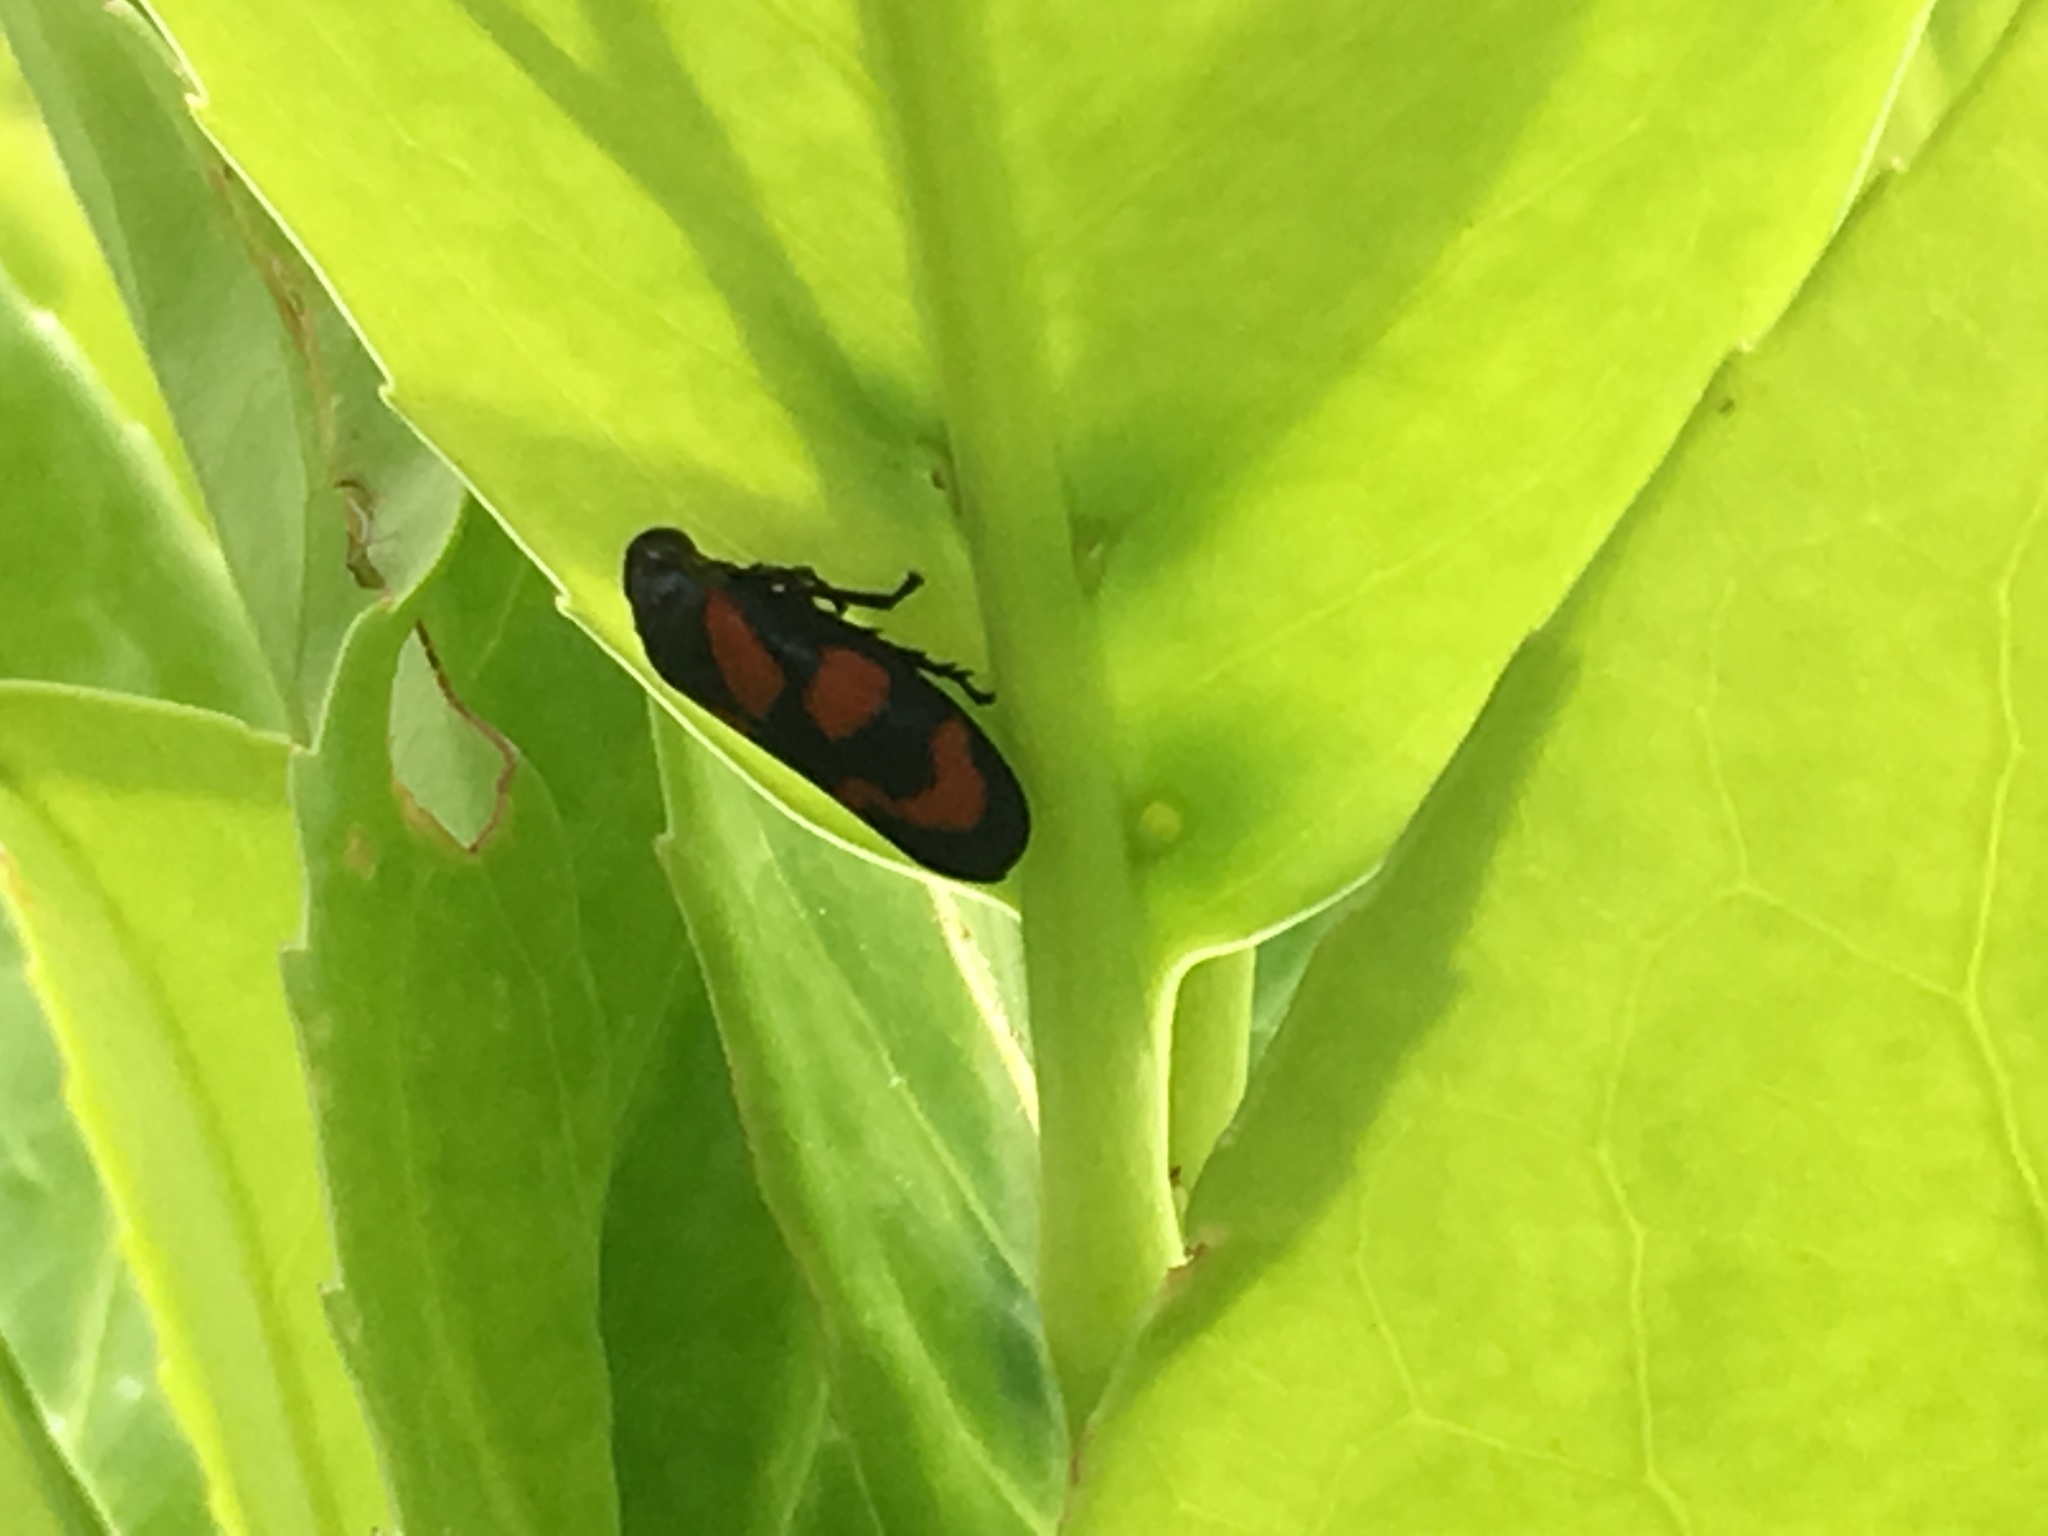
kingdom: Animalia
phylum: Arthropoda
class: Insecta
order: Hemiptera
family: Cercopidae
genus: Cercopis
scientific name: Cercopis vulnerata
